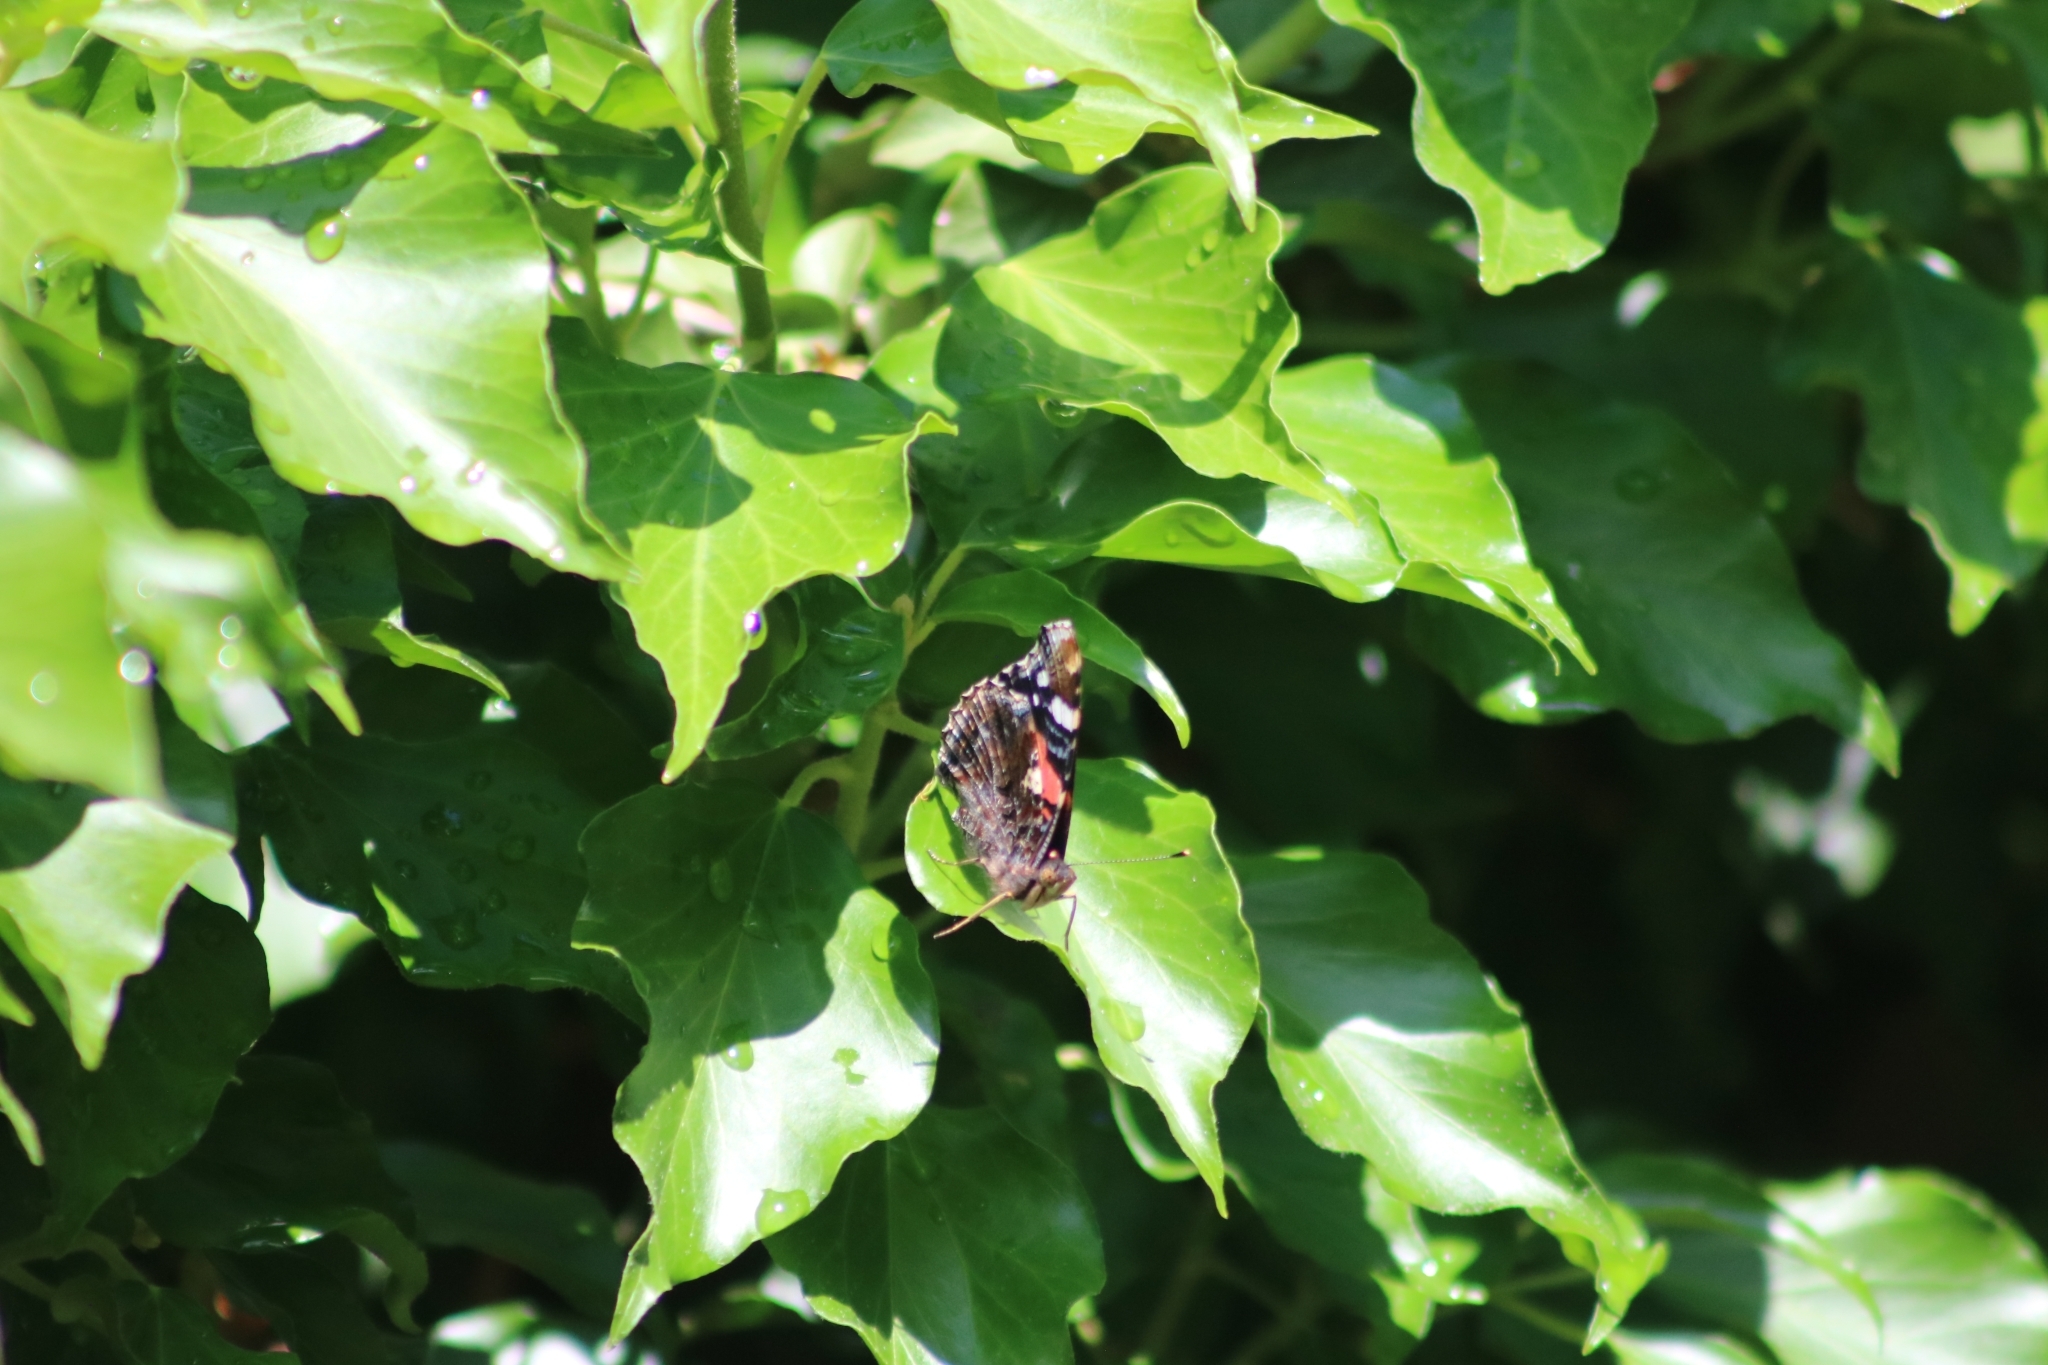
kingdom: Animalia
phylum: Arthropoda
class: Insecta
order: Lepidoptera
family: Nymphalidae
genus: Vanessa
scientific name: Vanessa atalanta
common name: Red admiral
